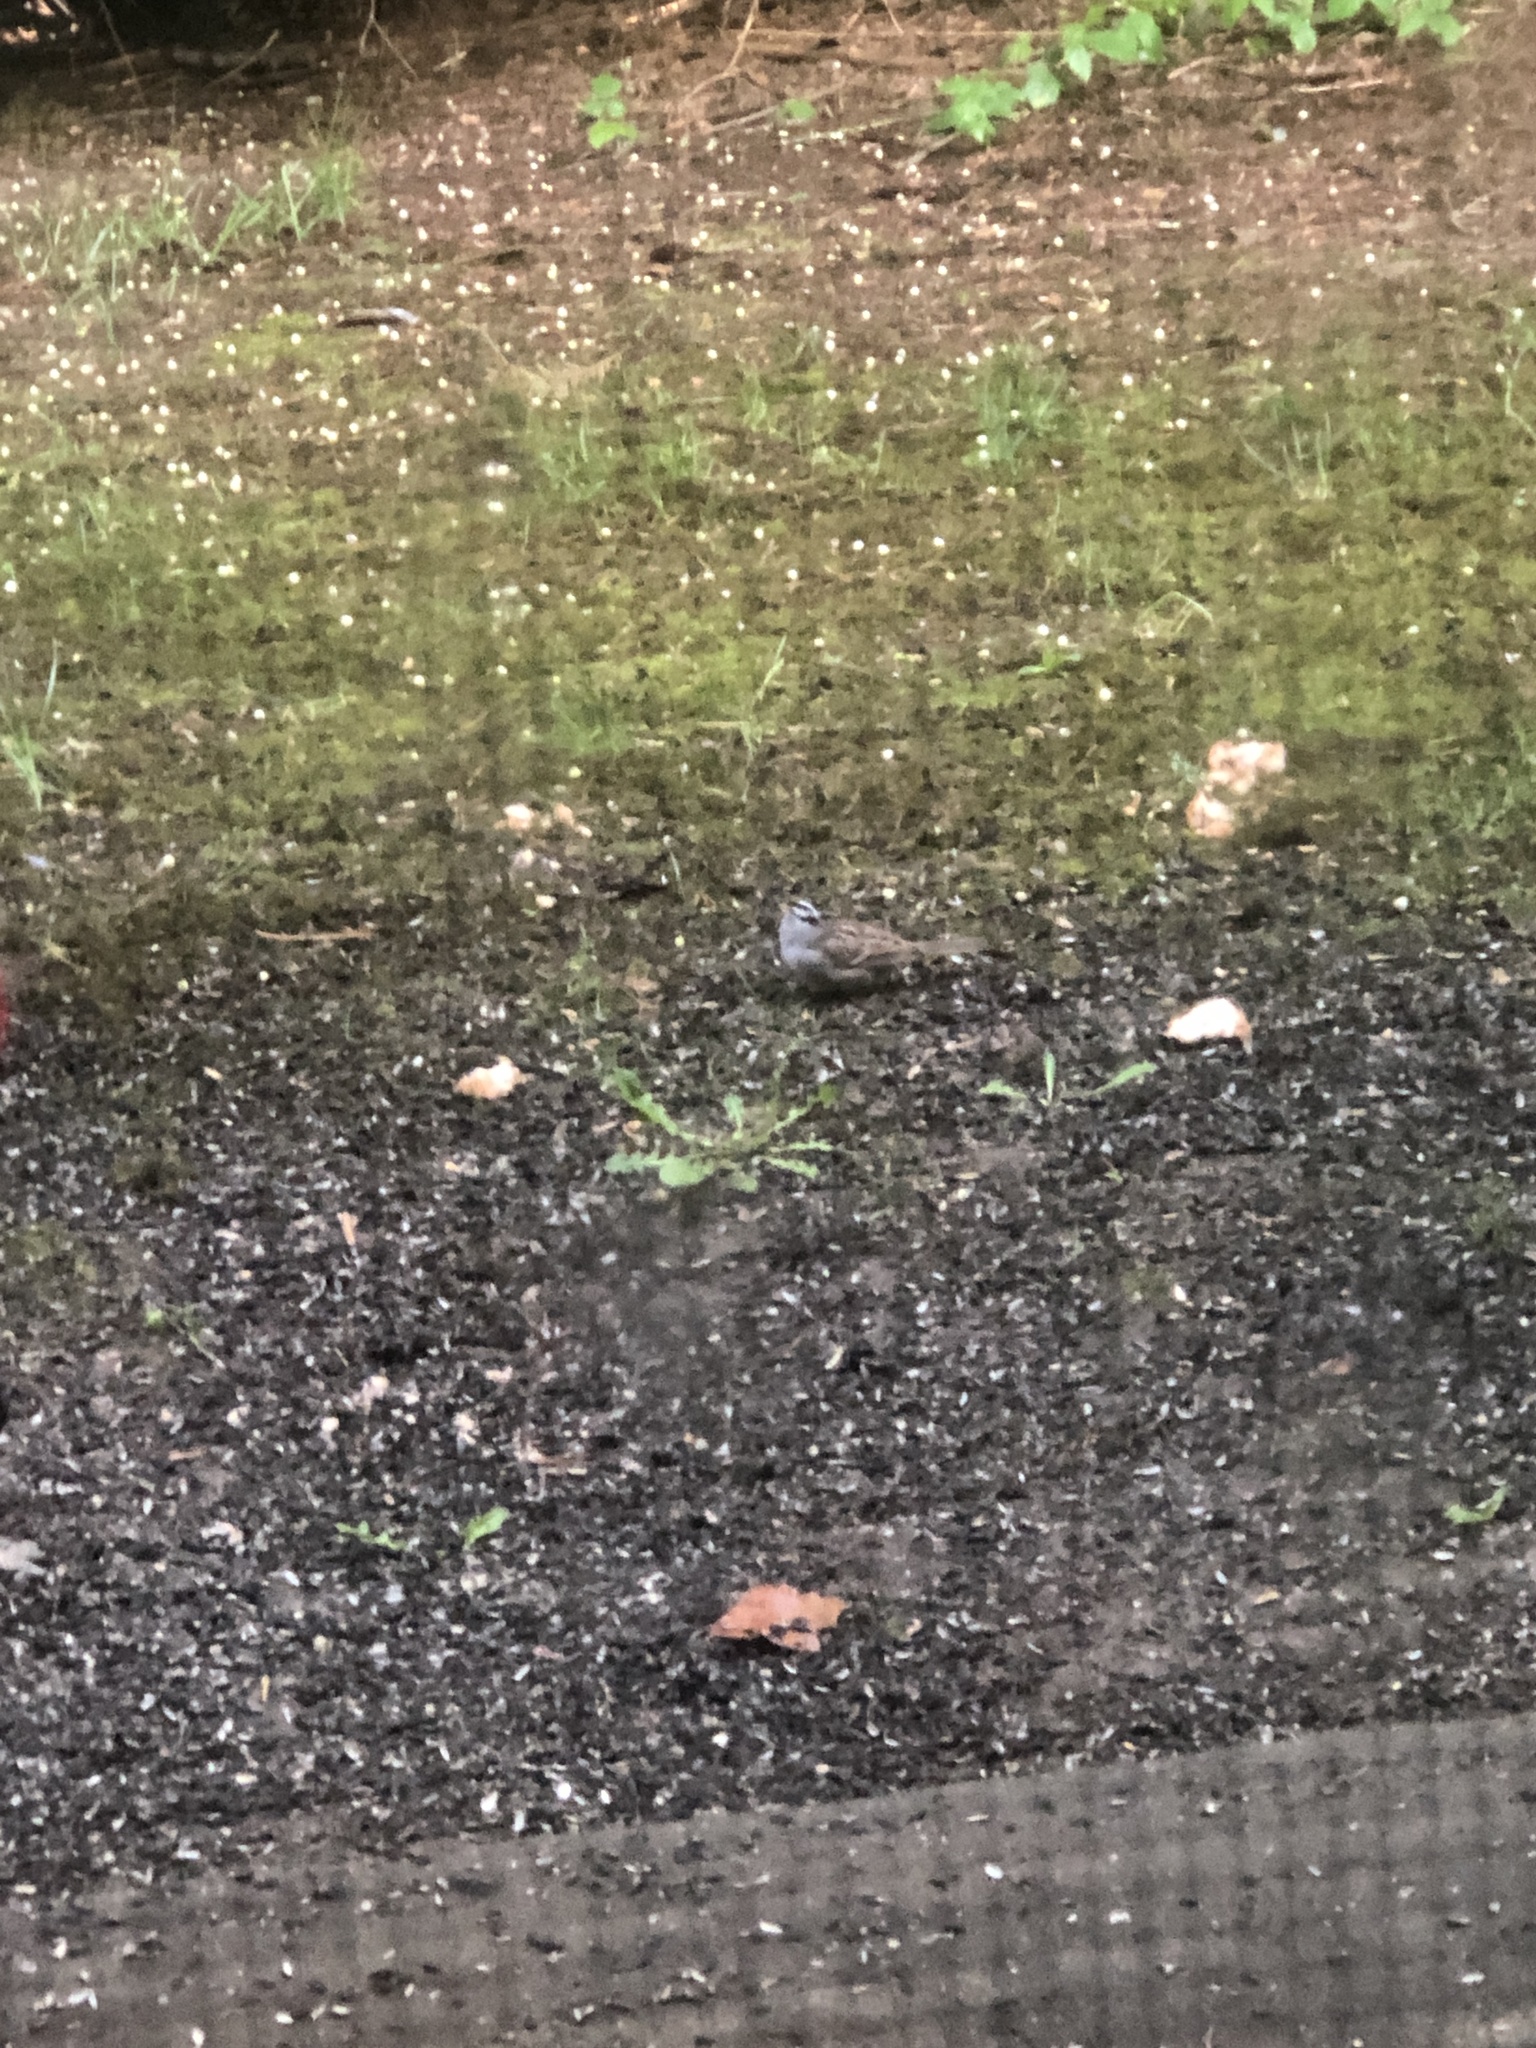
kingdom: Animalia
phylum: Chordata
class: Aves
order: Passeriformes
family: Passerellidae
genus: Zonotrichia
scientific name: Zonotrichia leucophrys
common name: White-crowned sparrow
